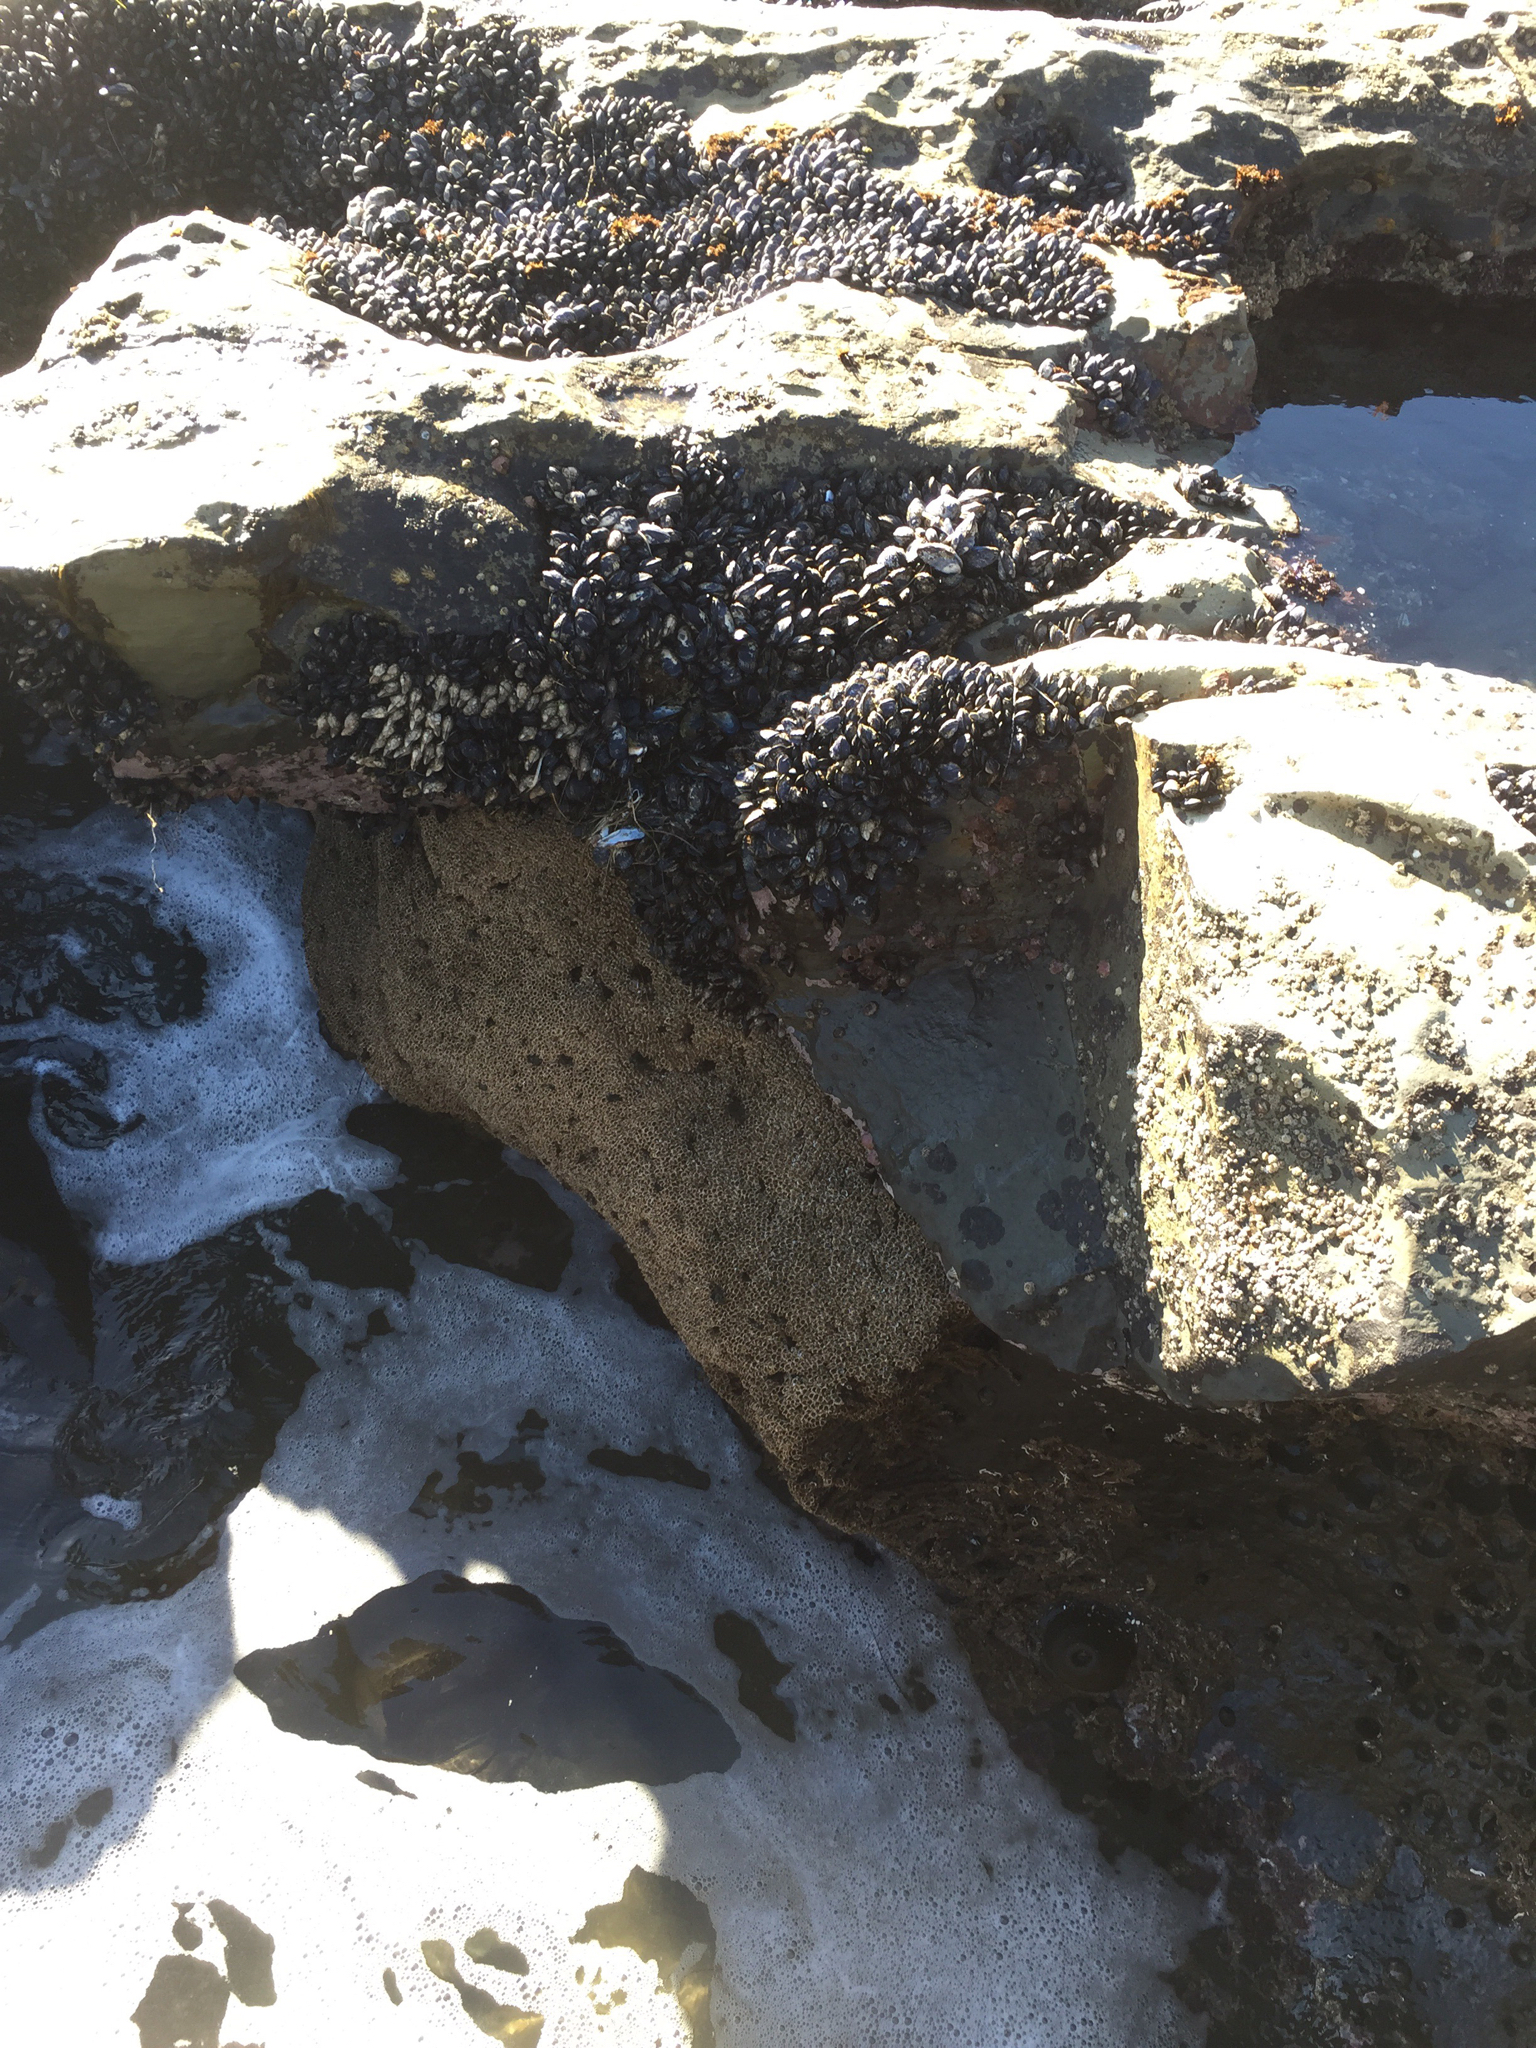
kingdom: Animalia
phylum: Annelida
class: Polychaeta
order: Sabellida
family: Sabellariidae
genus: Phragmatopoma
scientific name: Phragmatopoma californica
